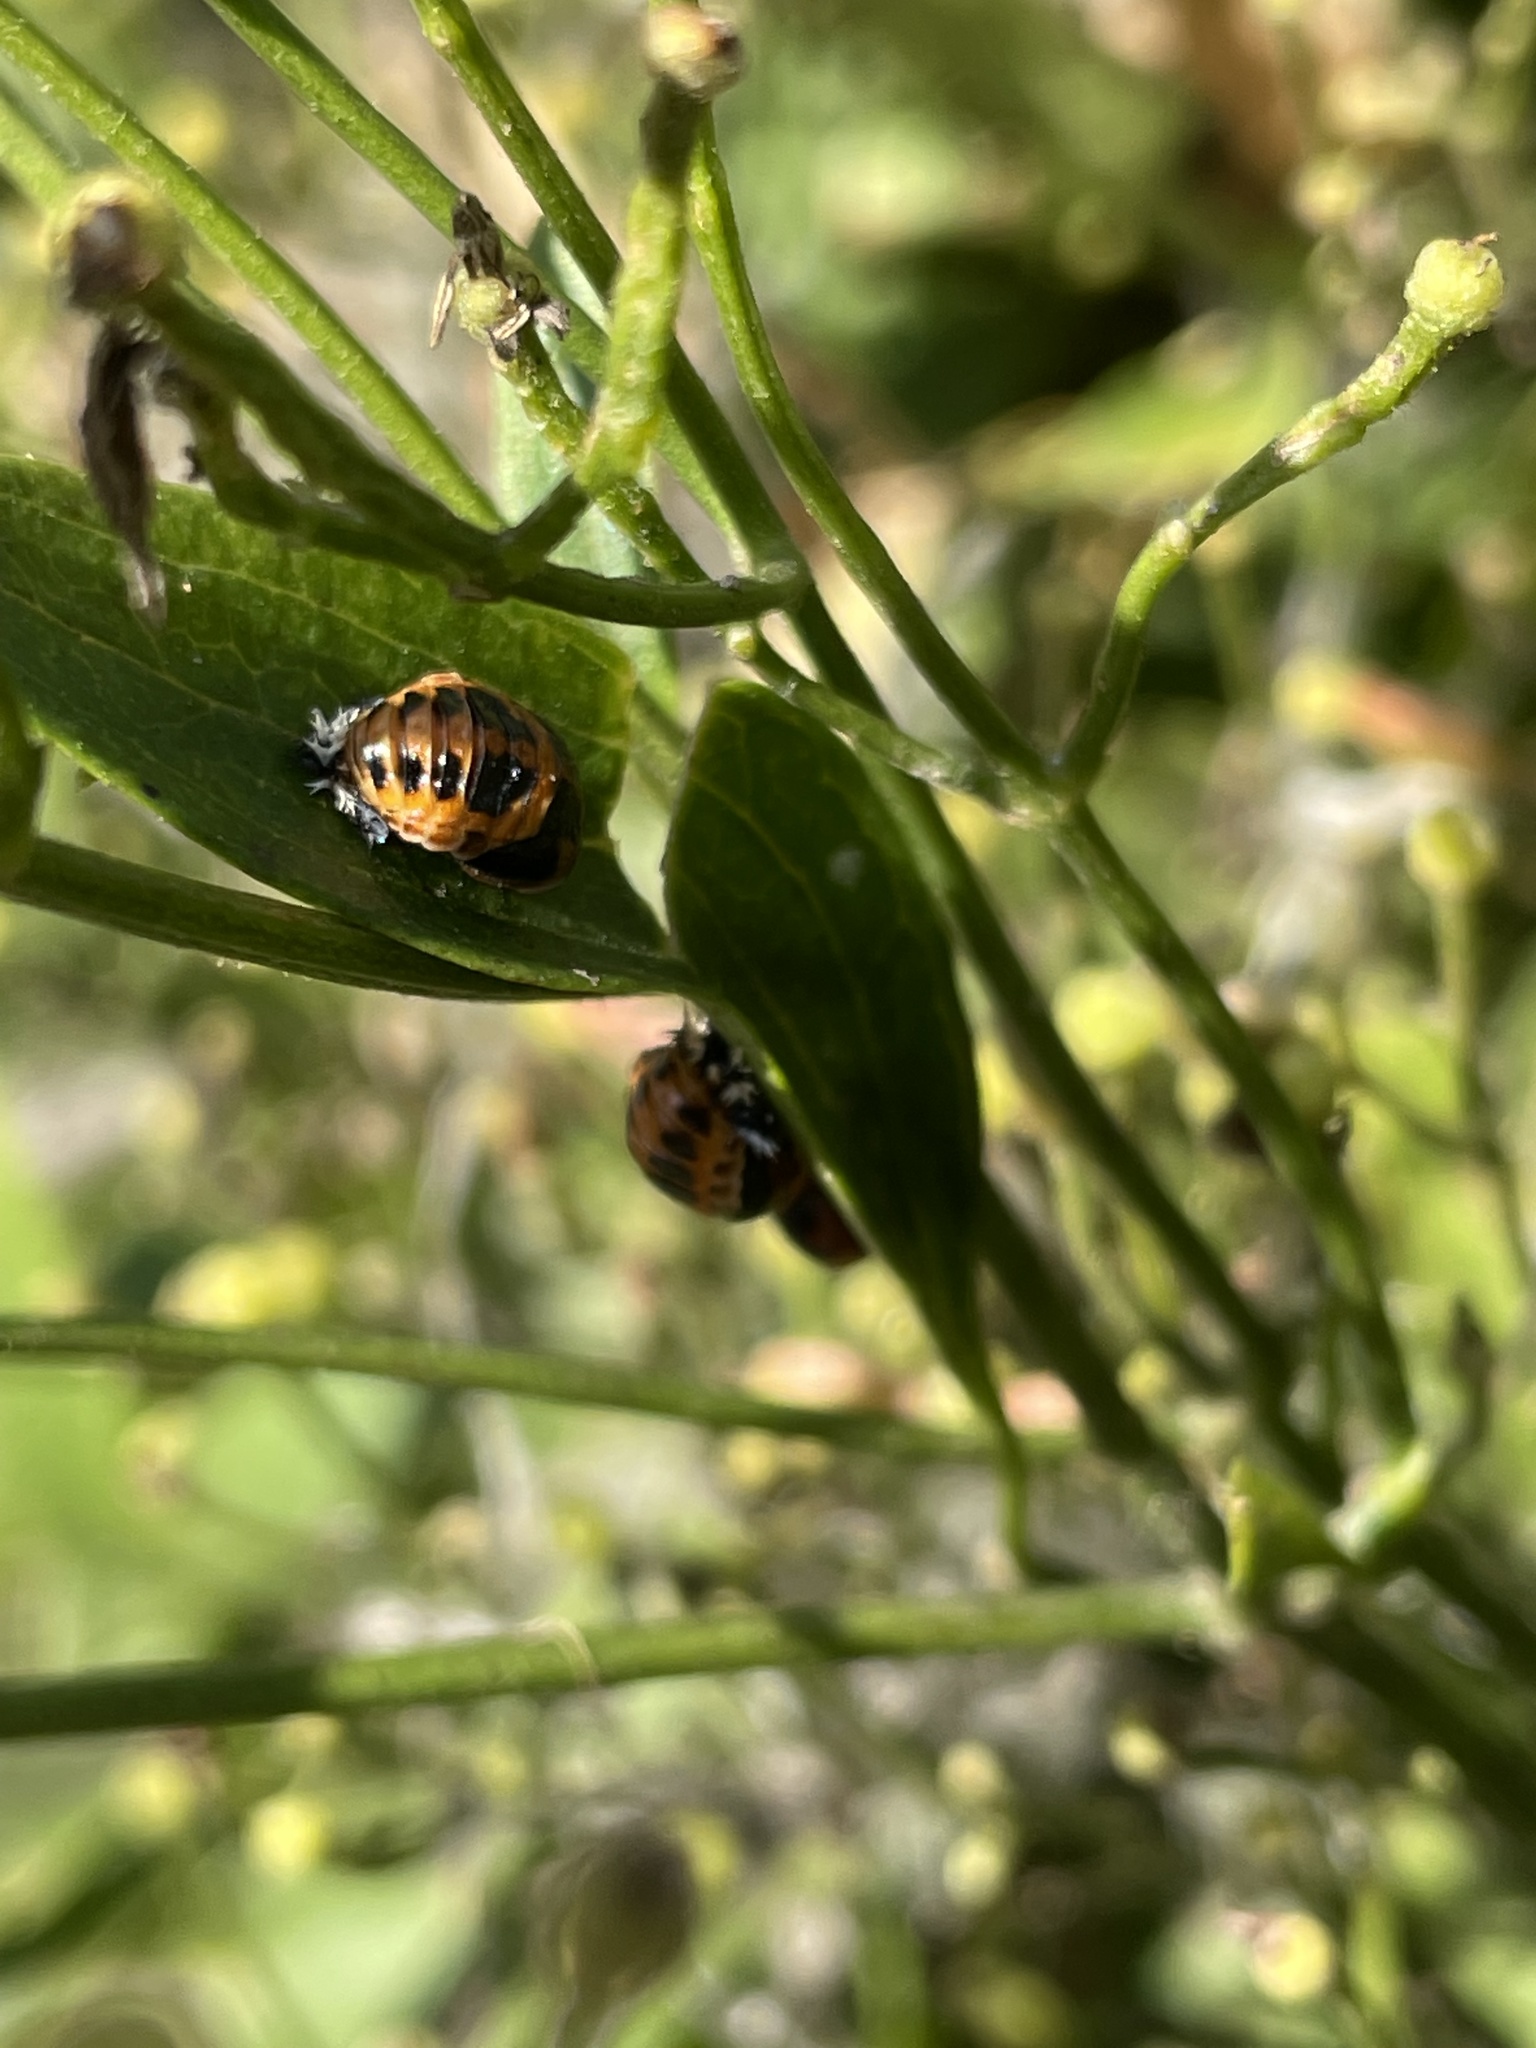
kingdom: Animalia
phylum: Arthropoda
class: Insecta
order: Coleoptera
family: Coccinellidae
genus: Harmonia
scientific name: Harmonia axyridis
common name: Harlequin ladybird
